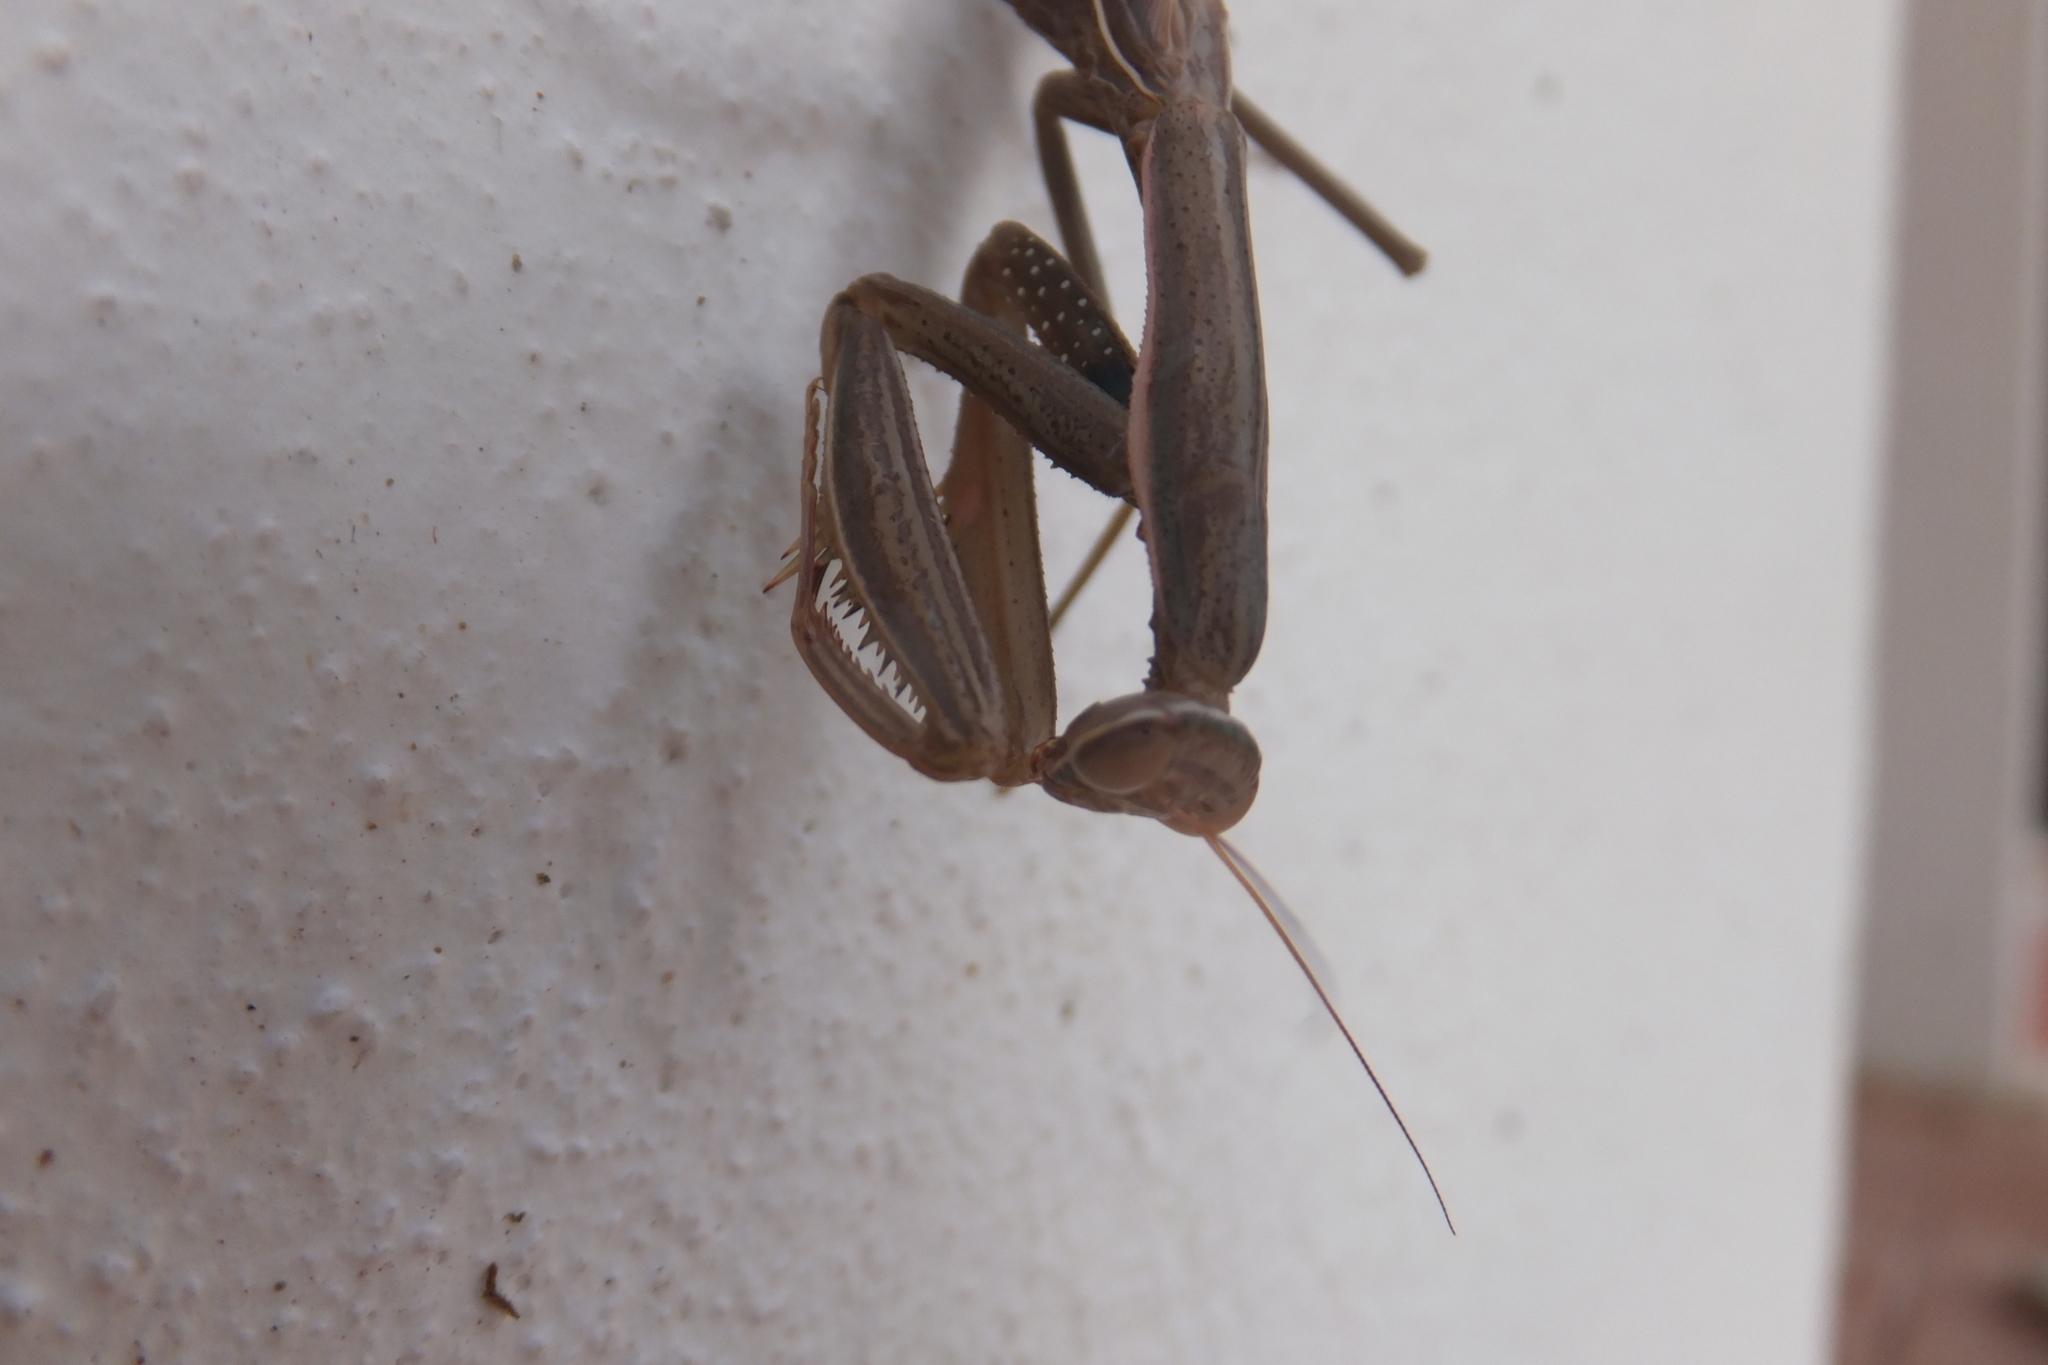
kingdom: Animalia
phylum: Arthropoda
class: Insecta
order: Mantodea
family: Mantidae
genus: Mantis
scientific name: Mantis religiosa
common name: Praying mantis
